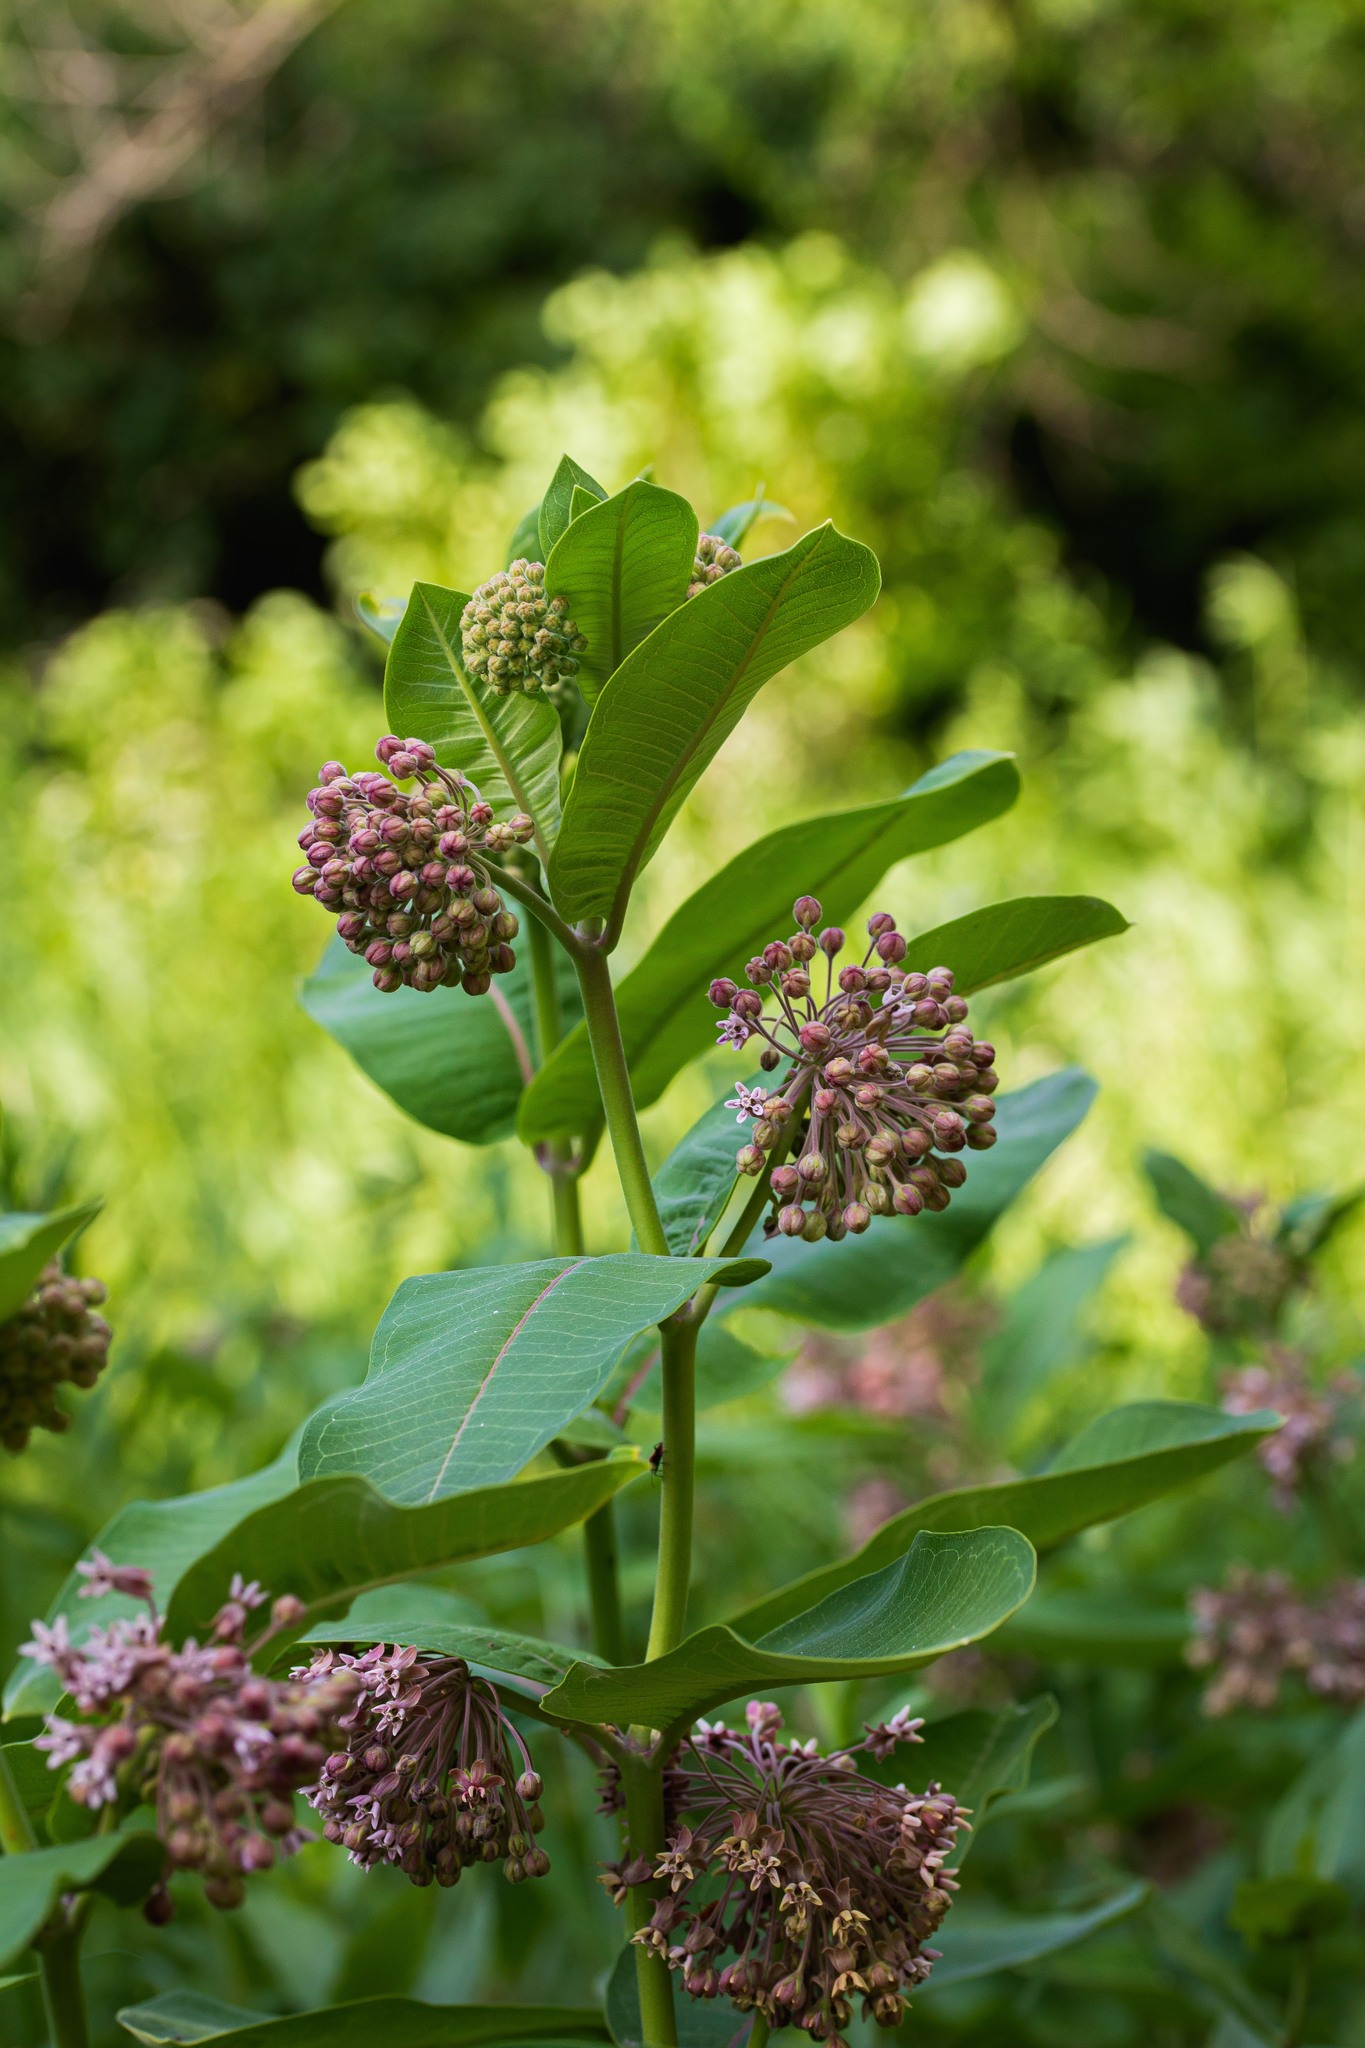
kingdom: Plantae
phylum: Tracheophyta
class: Magnoliopsida
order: Gentianales
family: Apocynaceae
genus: Asclepias
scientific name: Asclepias syriaca
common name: Common milkweed
